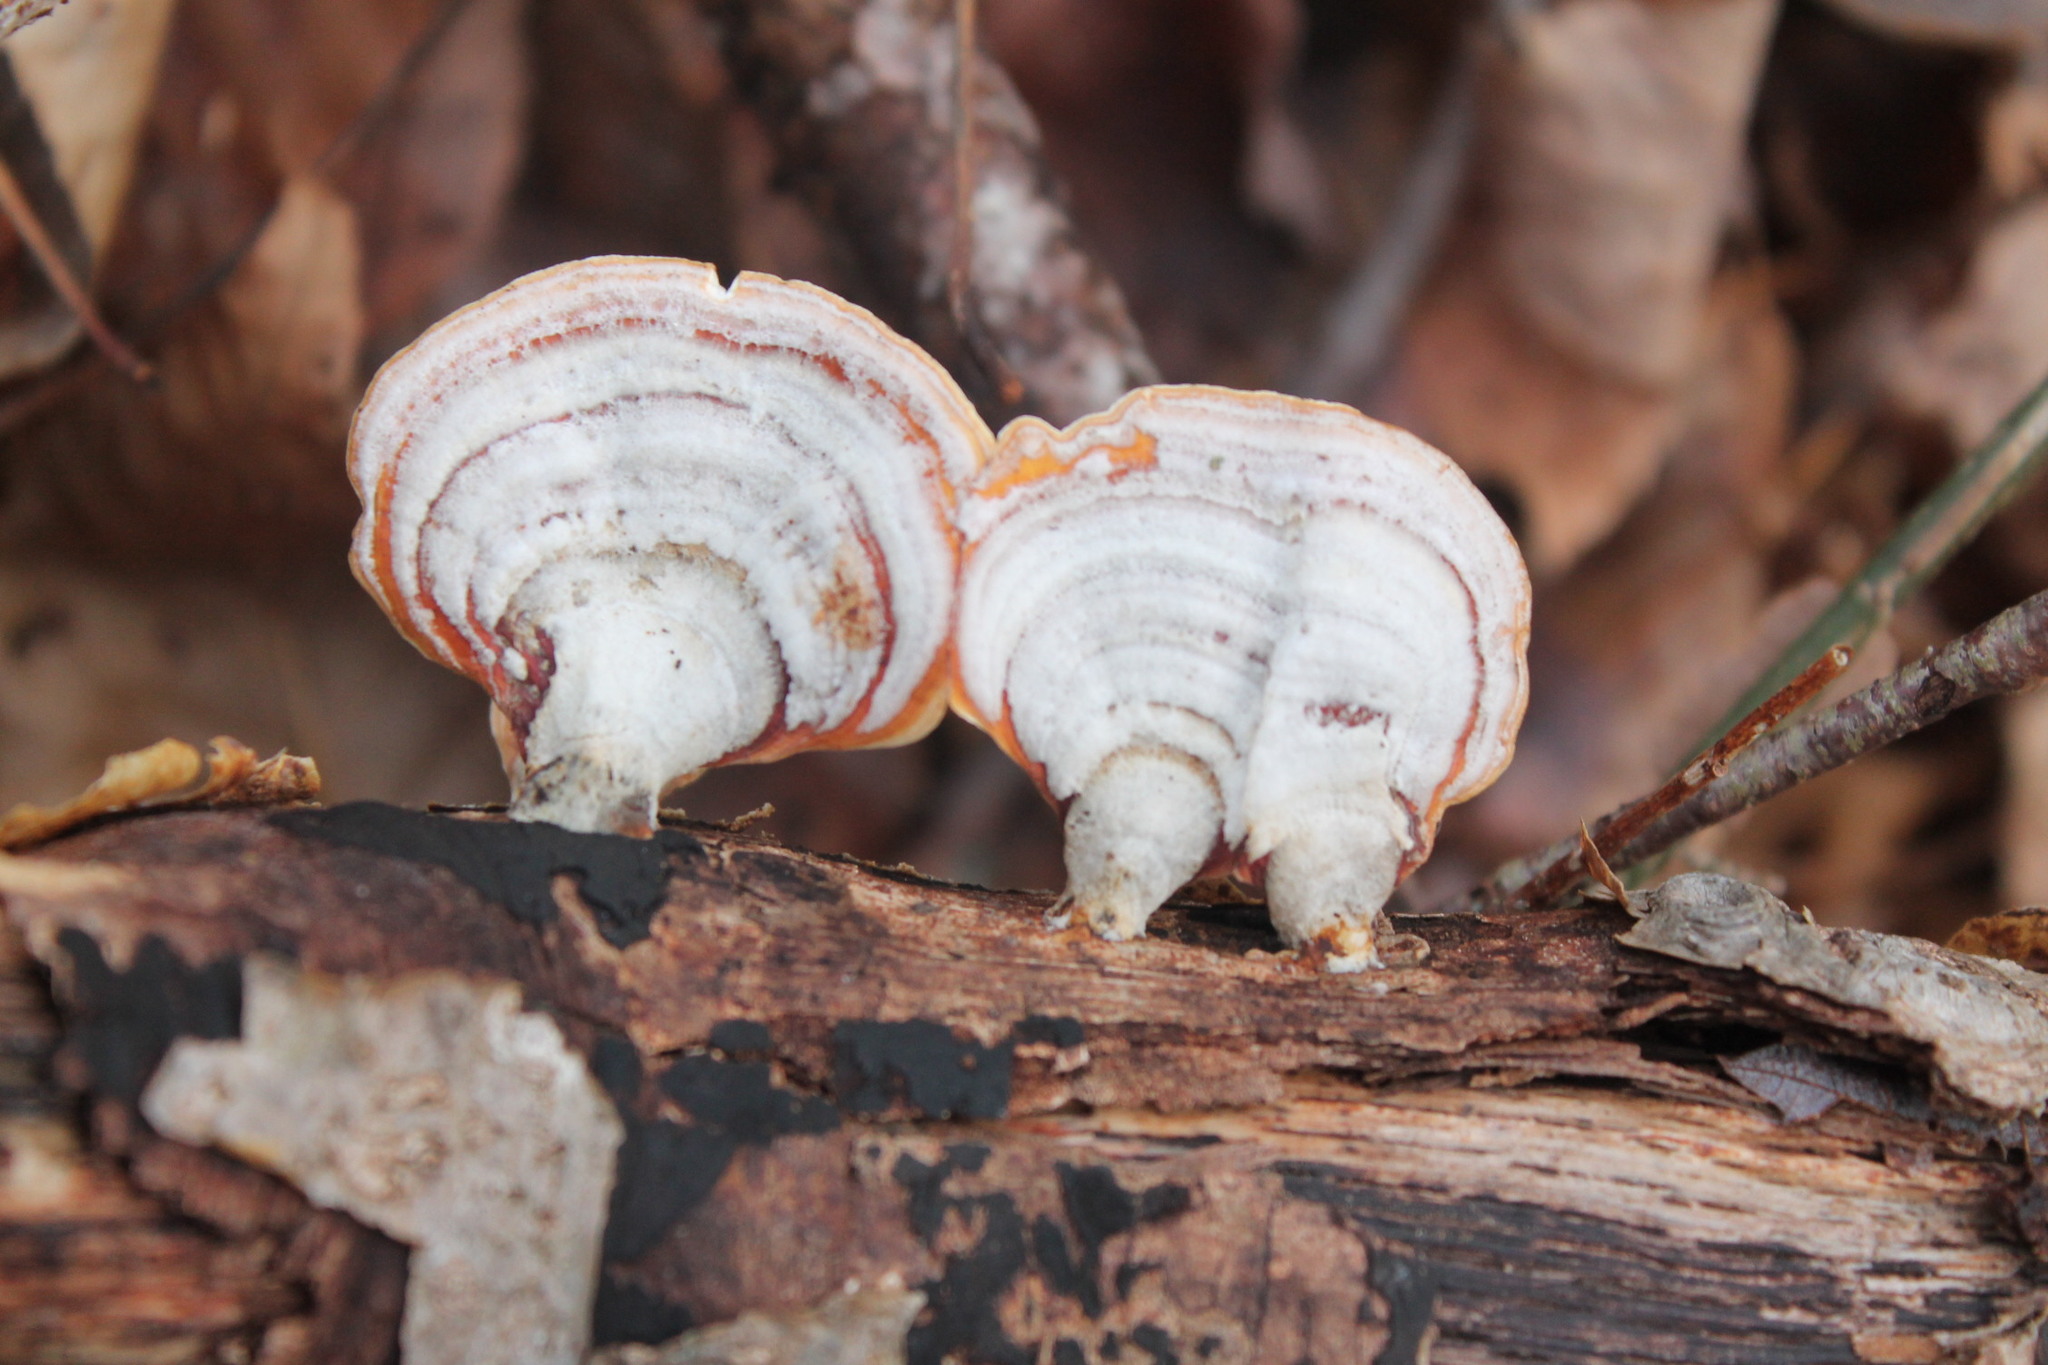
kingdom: Fungi
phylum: Basidiomycota
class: Agaricomycetes
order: Russulales
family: Stereaceae
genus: Stereum
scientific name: Stereum lobatum
